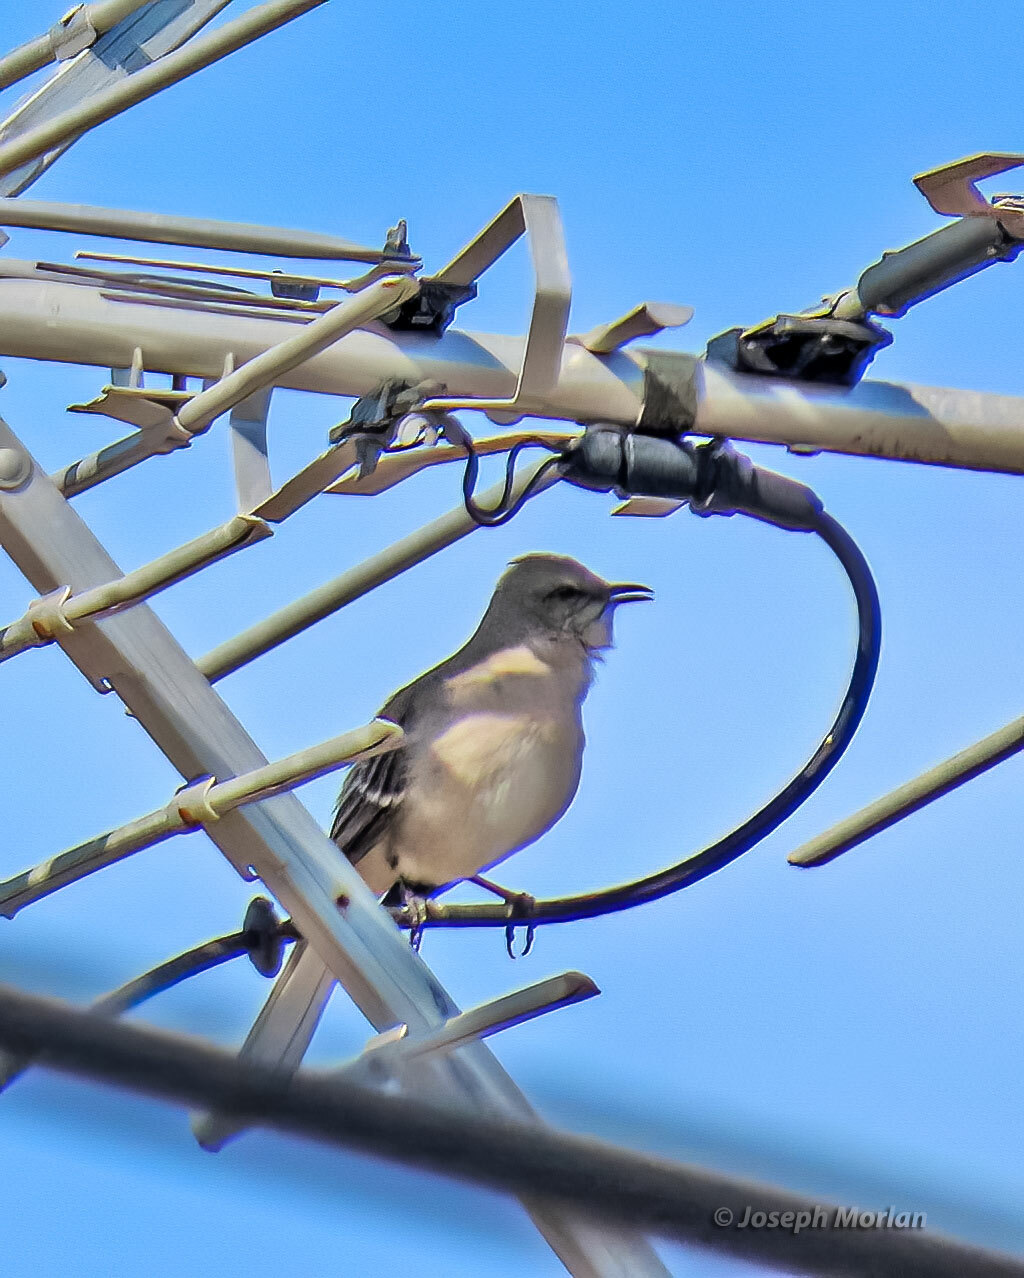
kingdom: Animalia
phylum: Chordata
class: Aves
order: Passeriformes
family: Mimidae
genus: Mimus
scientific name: Mimus polyglottos
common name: Northern mockingbird
